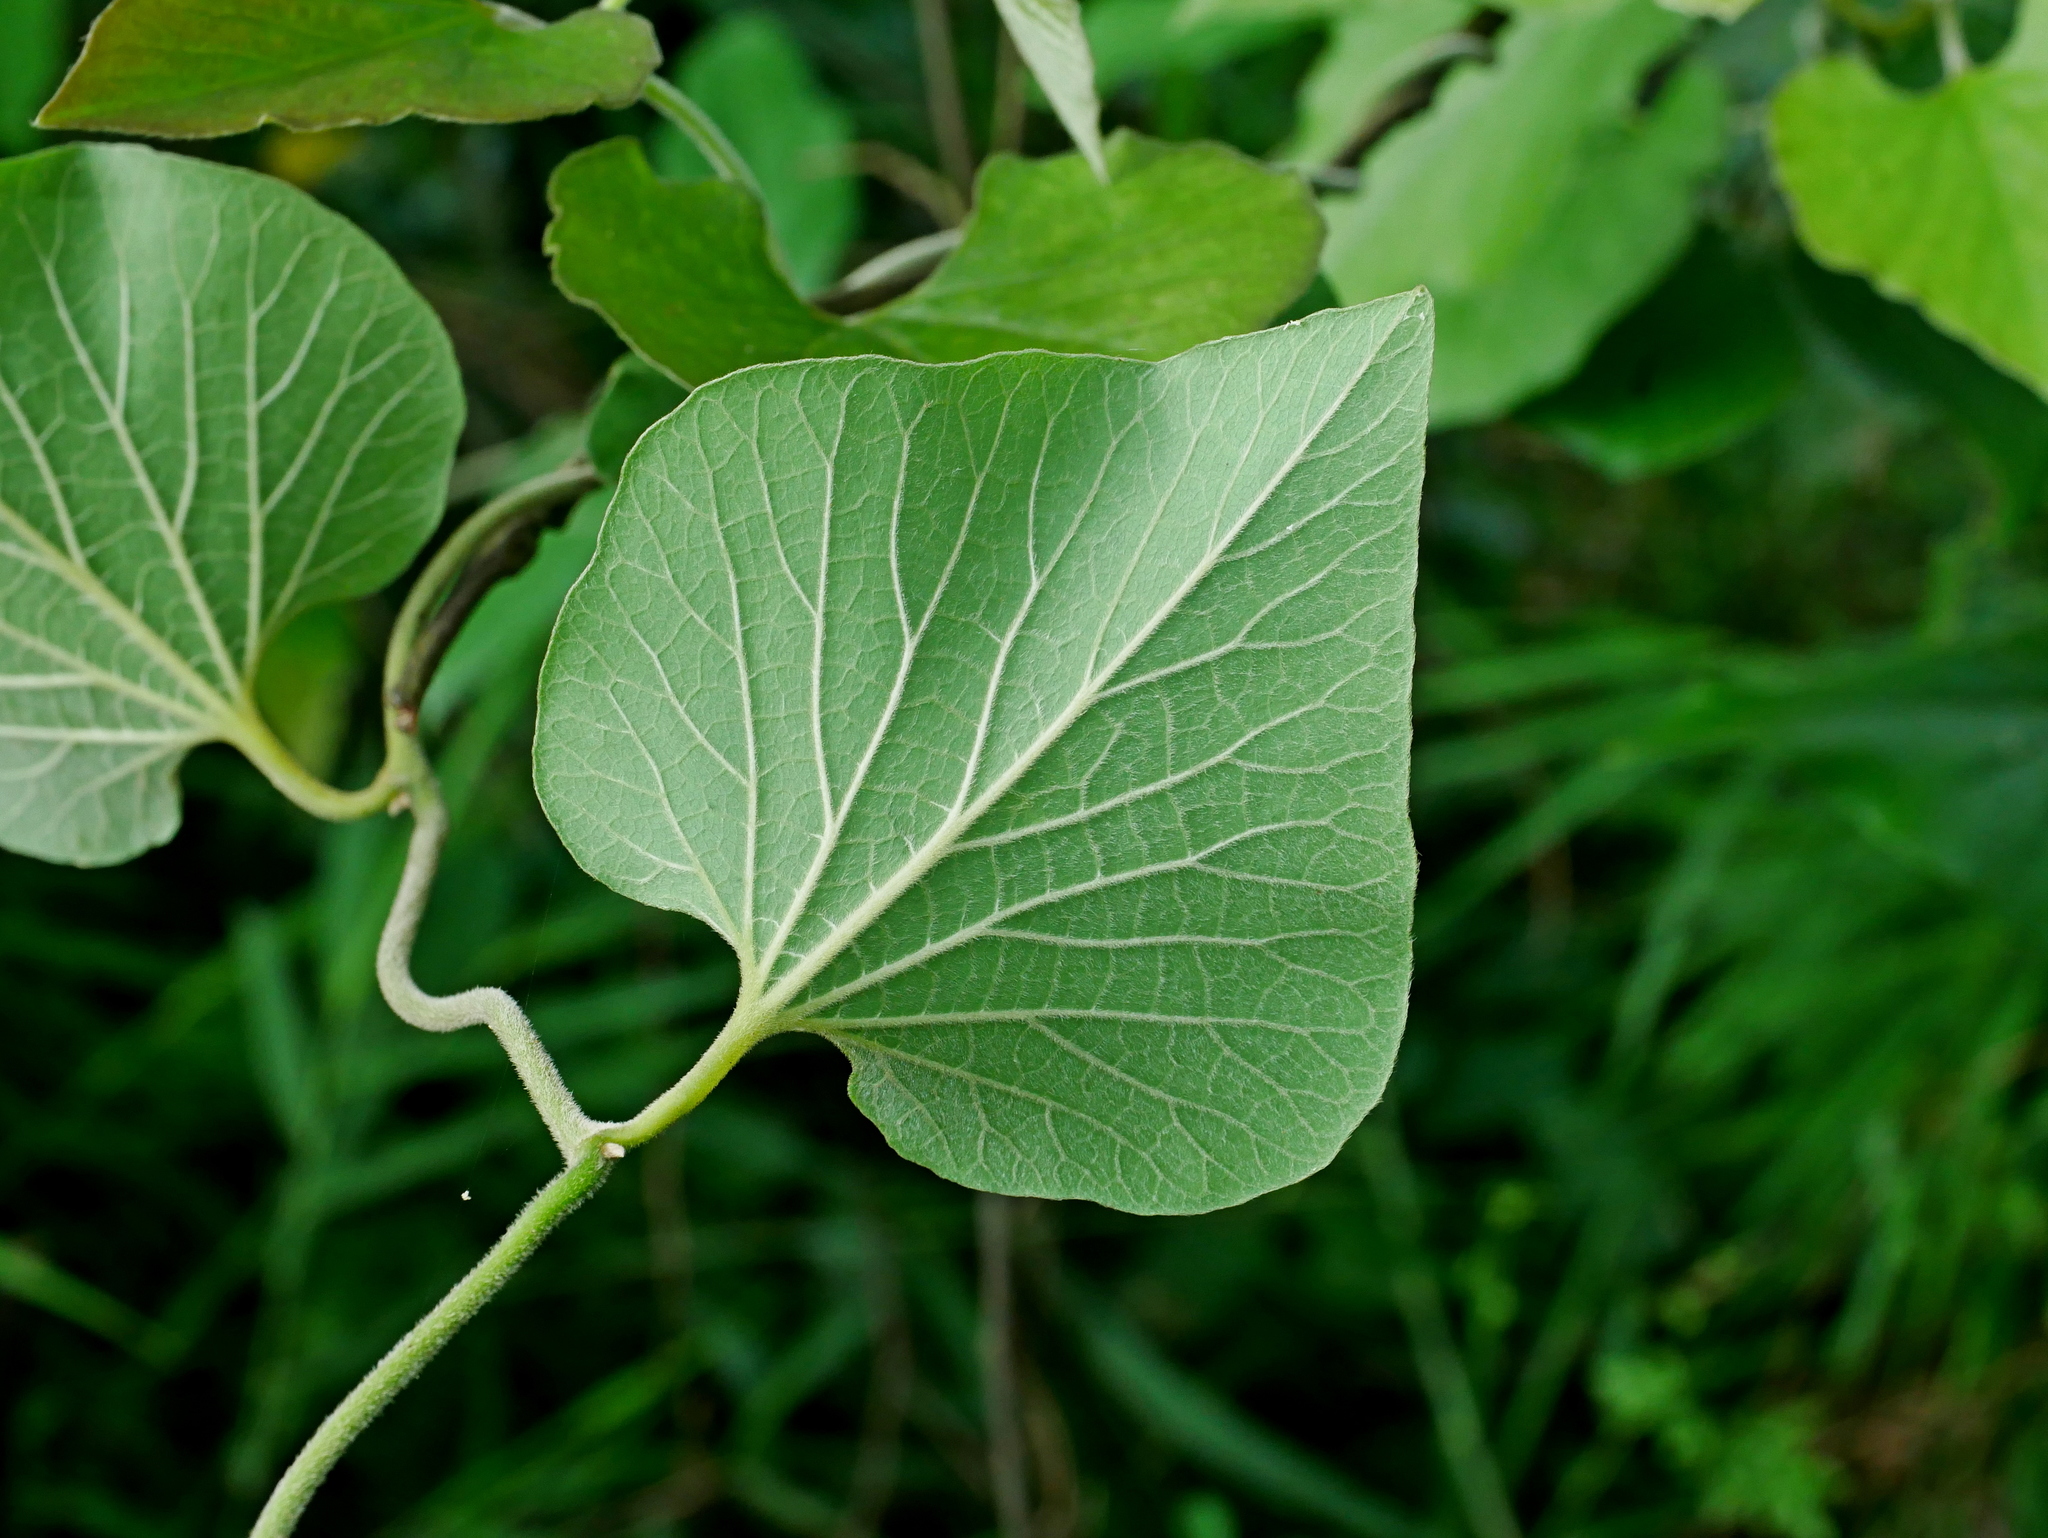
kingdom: Plantae
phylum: Tracheophyta
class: Magnoliopsida
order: Piperales
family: Aristolochiaceae
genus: Isotrema
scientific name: Isotrema shimadae
